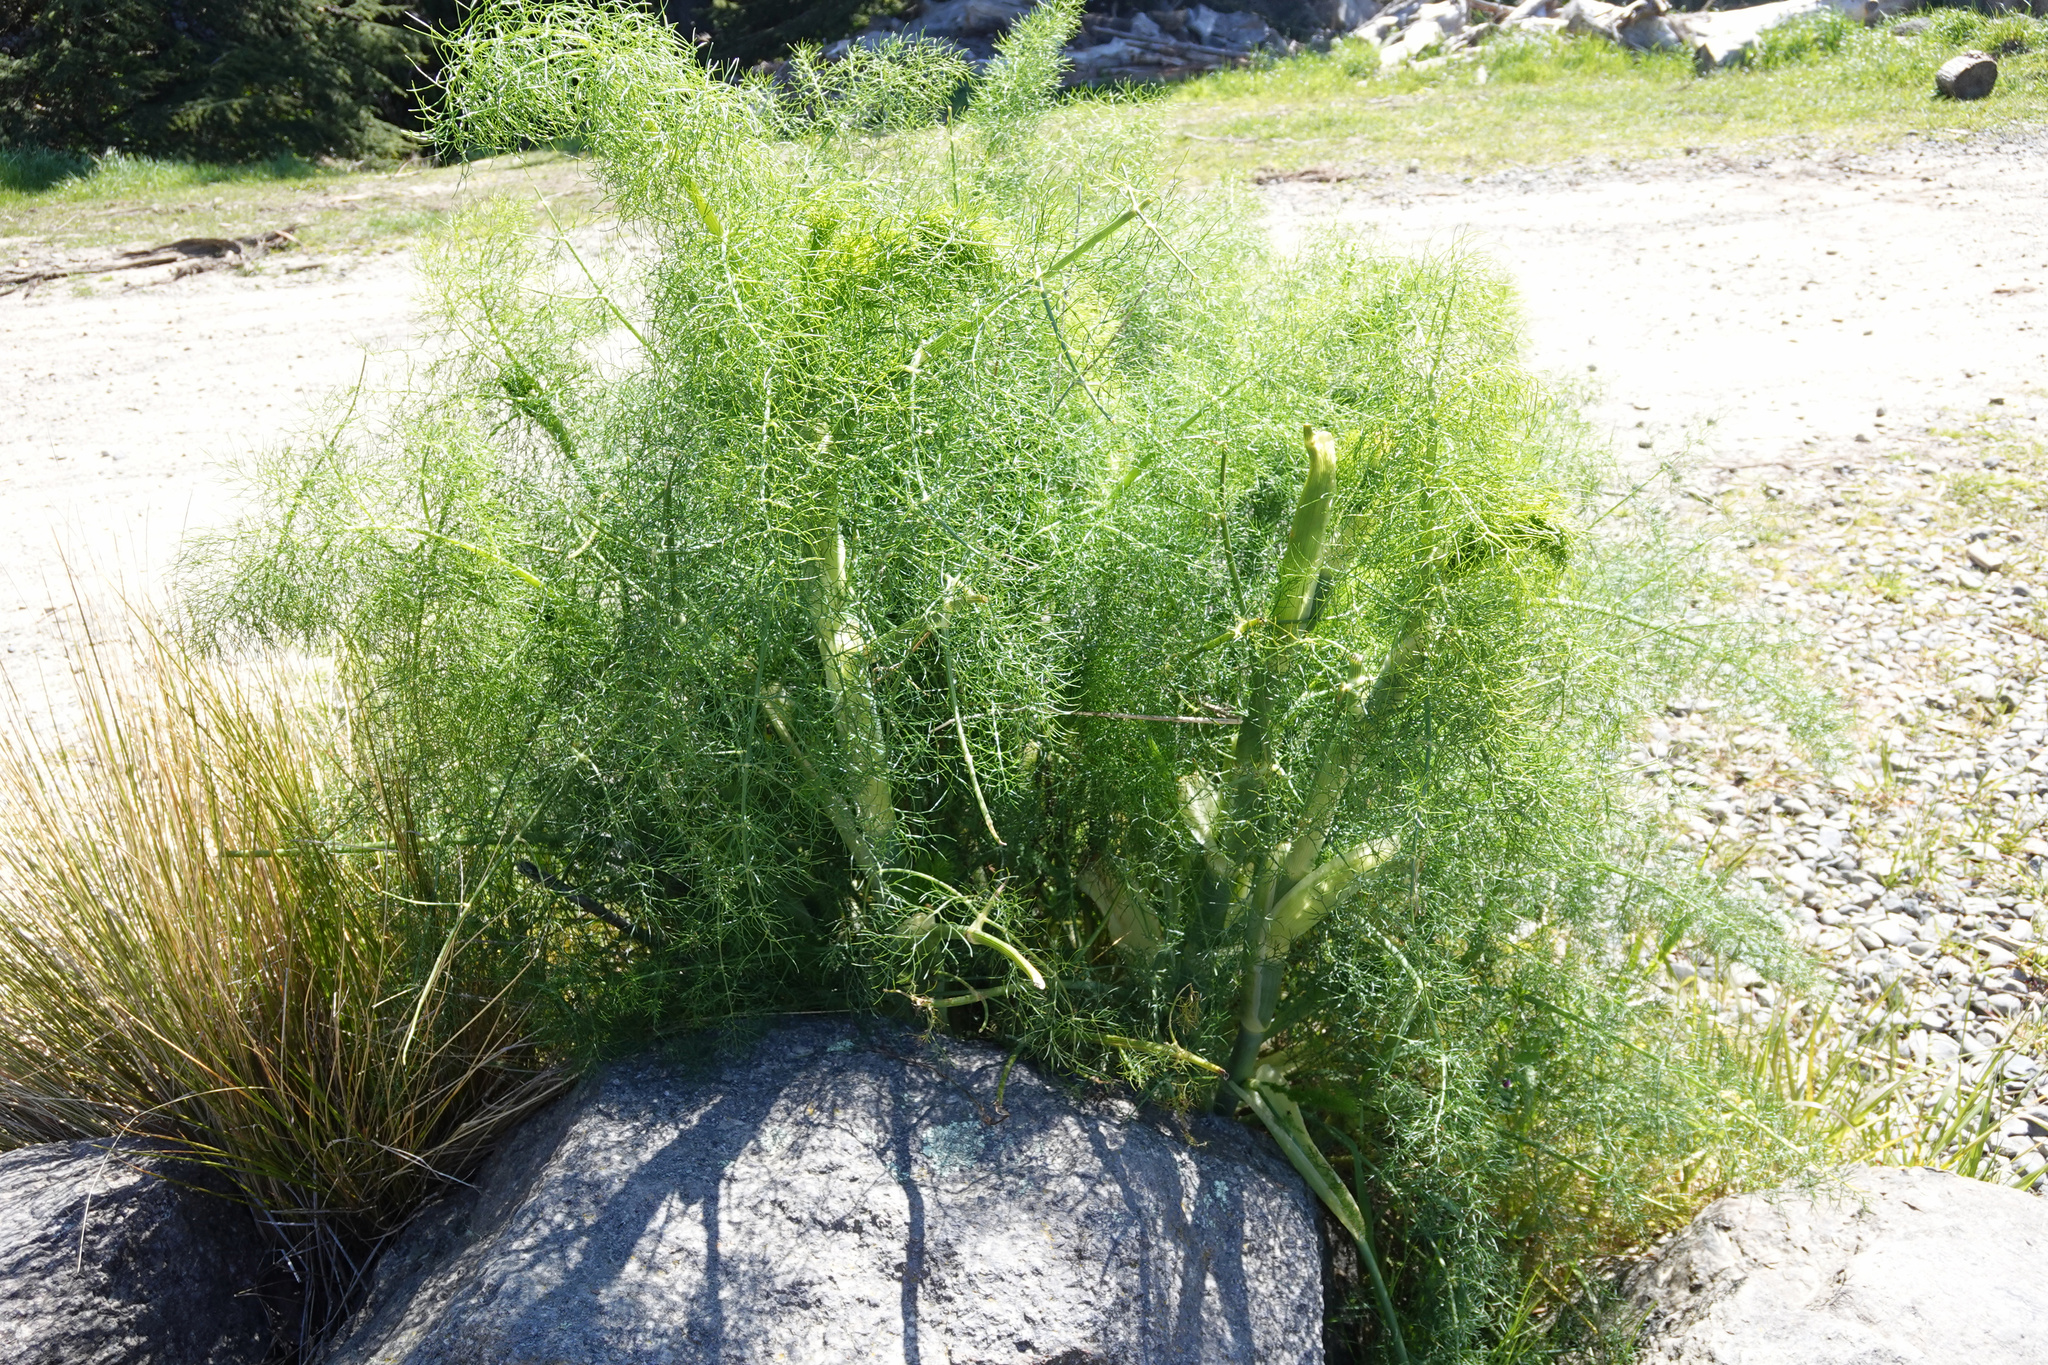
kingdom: Plantae
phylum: Tracheophyta
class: Magnoliopsida
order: Apiales
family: Apiaceae
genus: Foeniculum
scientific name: Foeniculum vulgare
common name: Fennel
